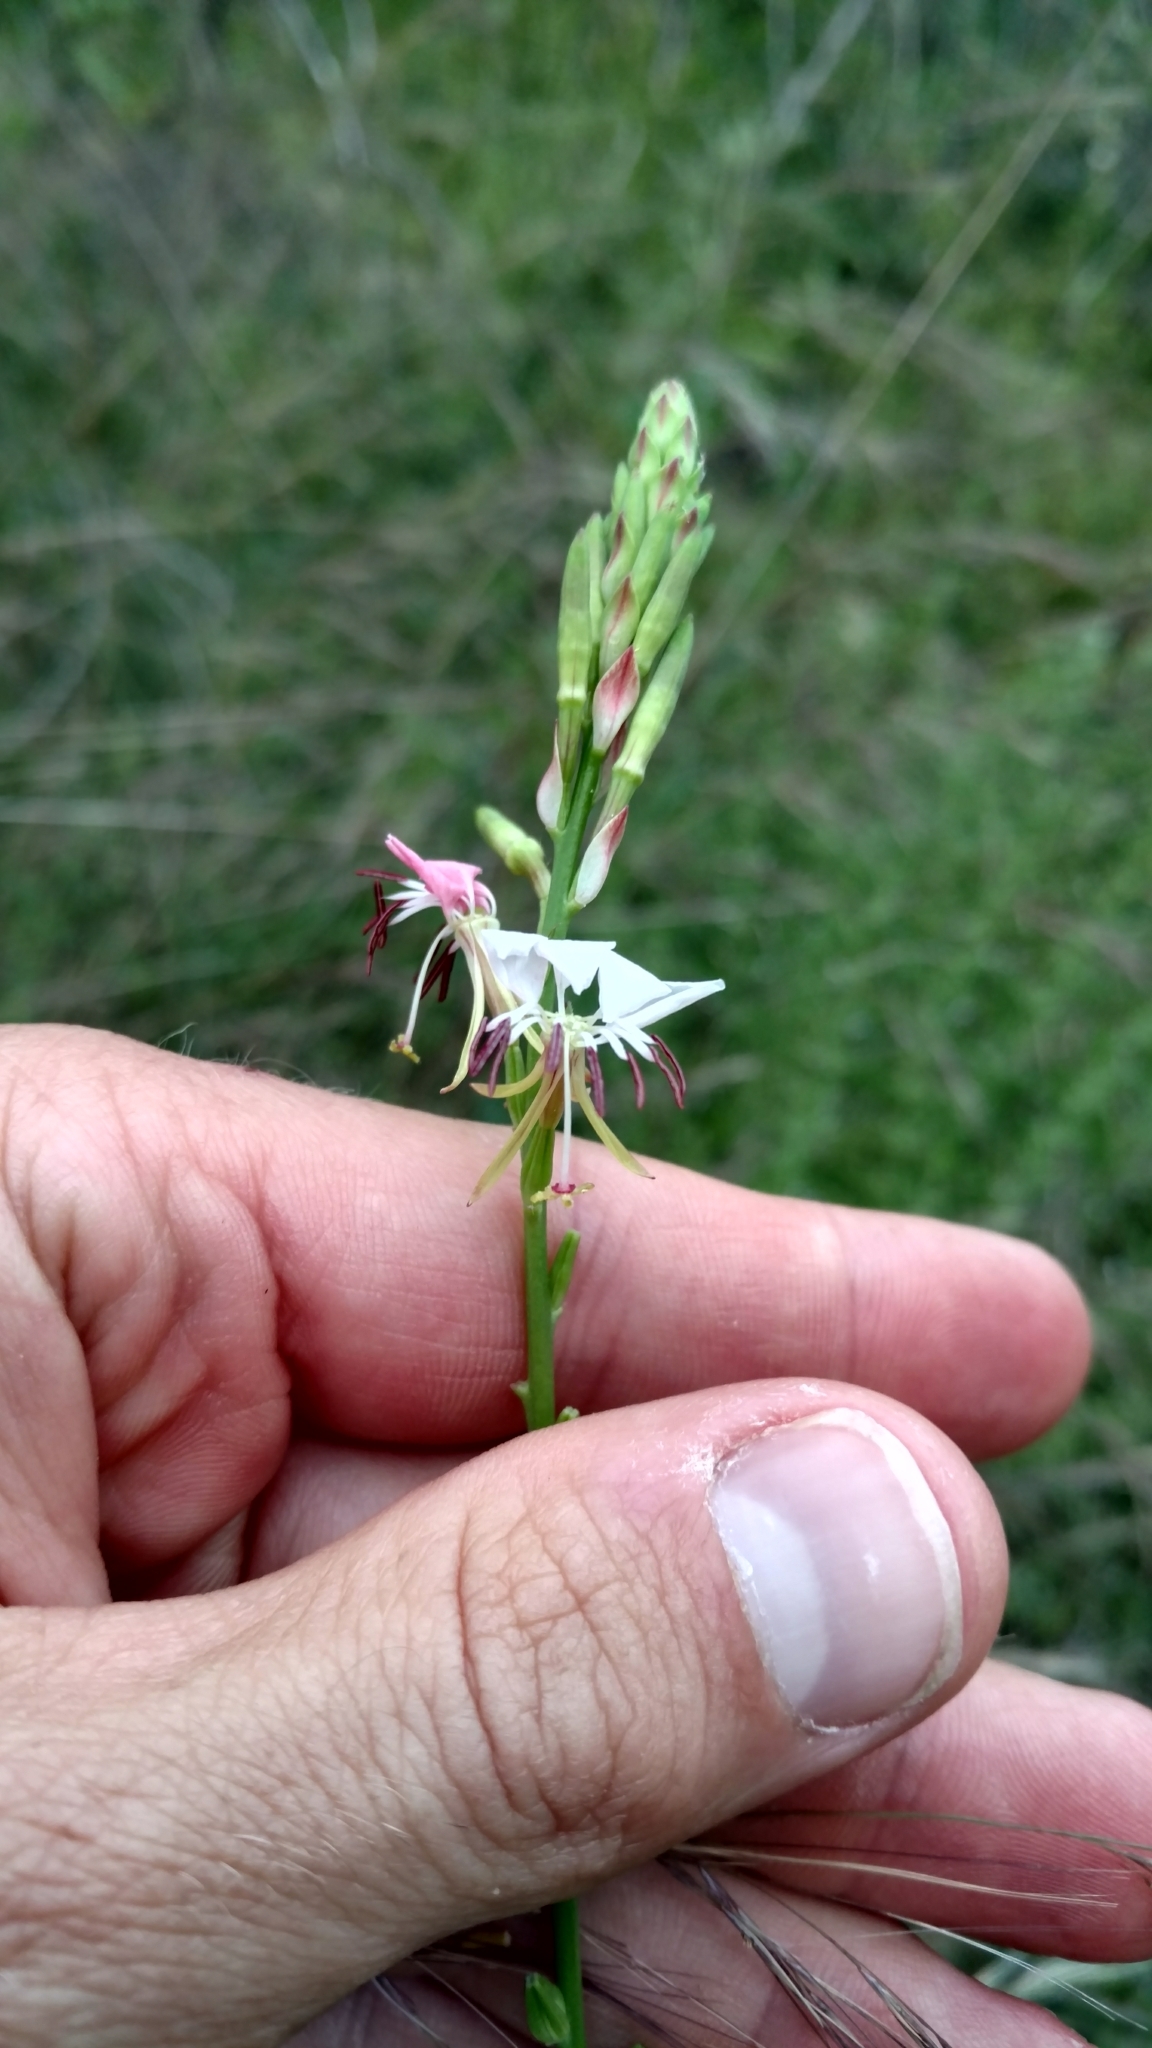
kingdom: Plantae
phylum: Tracheophyta
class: Magnoliopsida
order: Myrtales
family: Onagraceae
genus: Oenothera
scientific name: Oenothera suffulta
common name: Kisses
